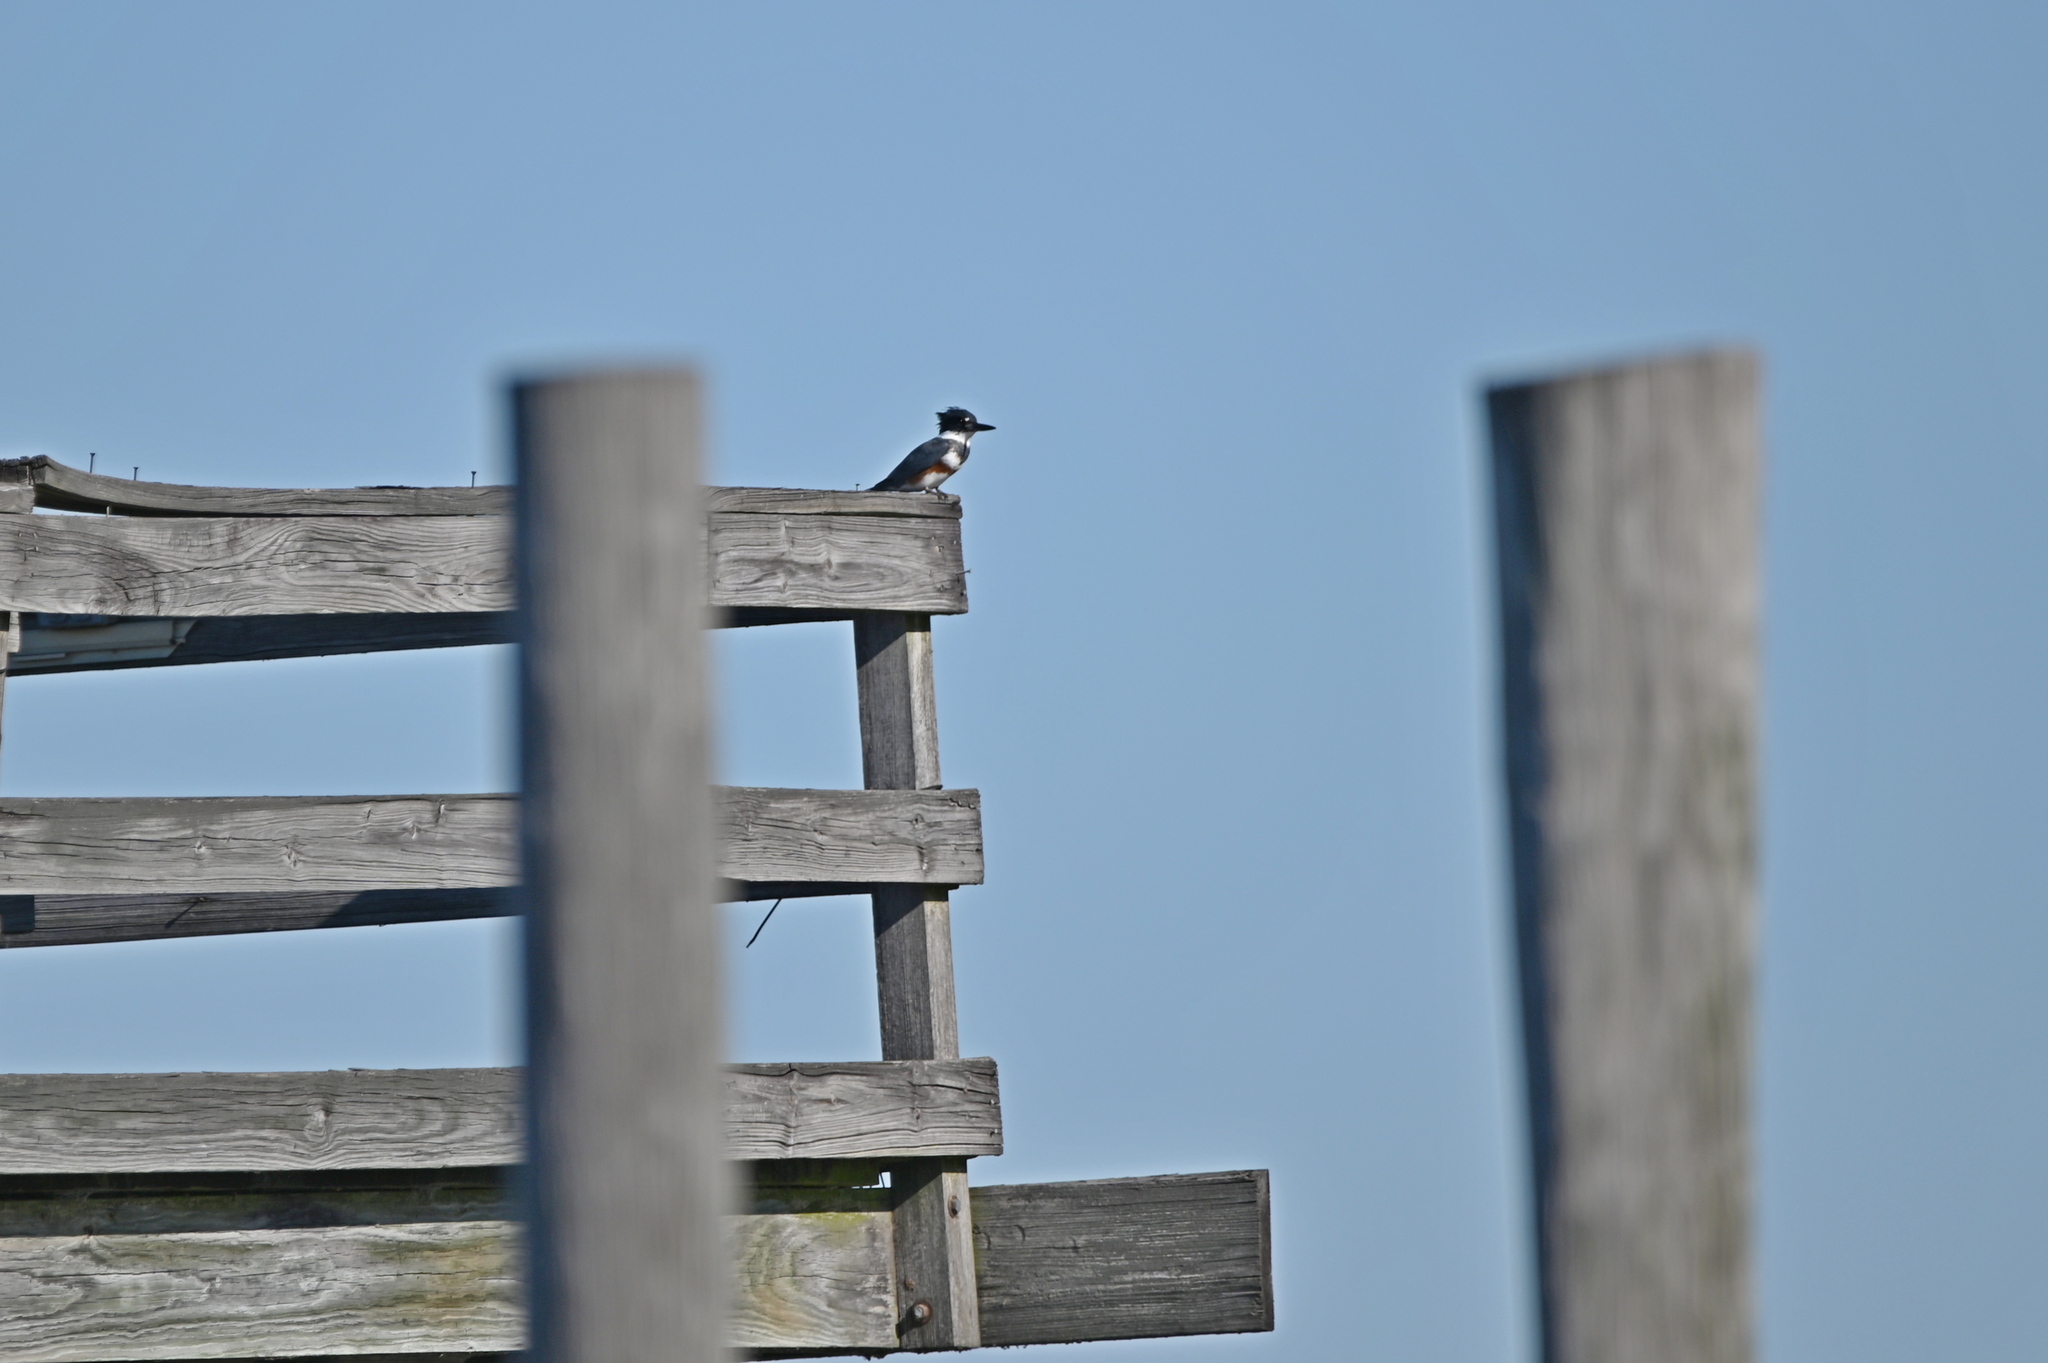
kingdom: Animalia
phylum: Chordata
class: Aves
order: Coraciiformes
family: Alcedinidae
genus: Megaceryle
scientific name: Megaceryle alcyon
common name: Belted kingfisher
